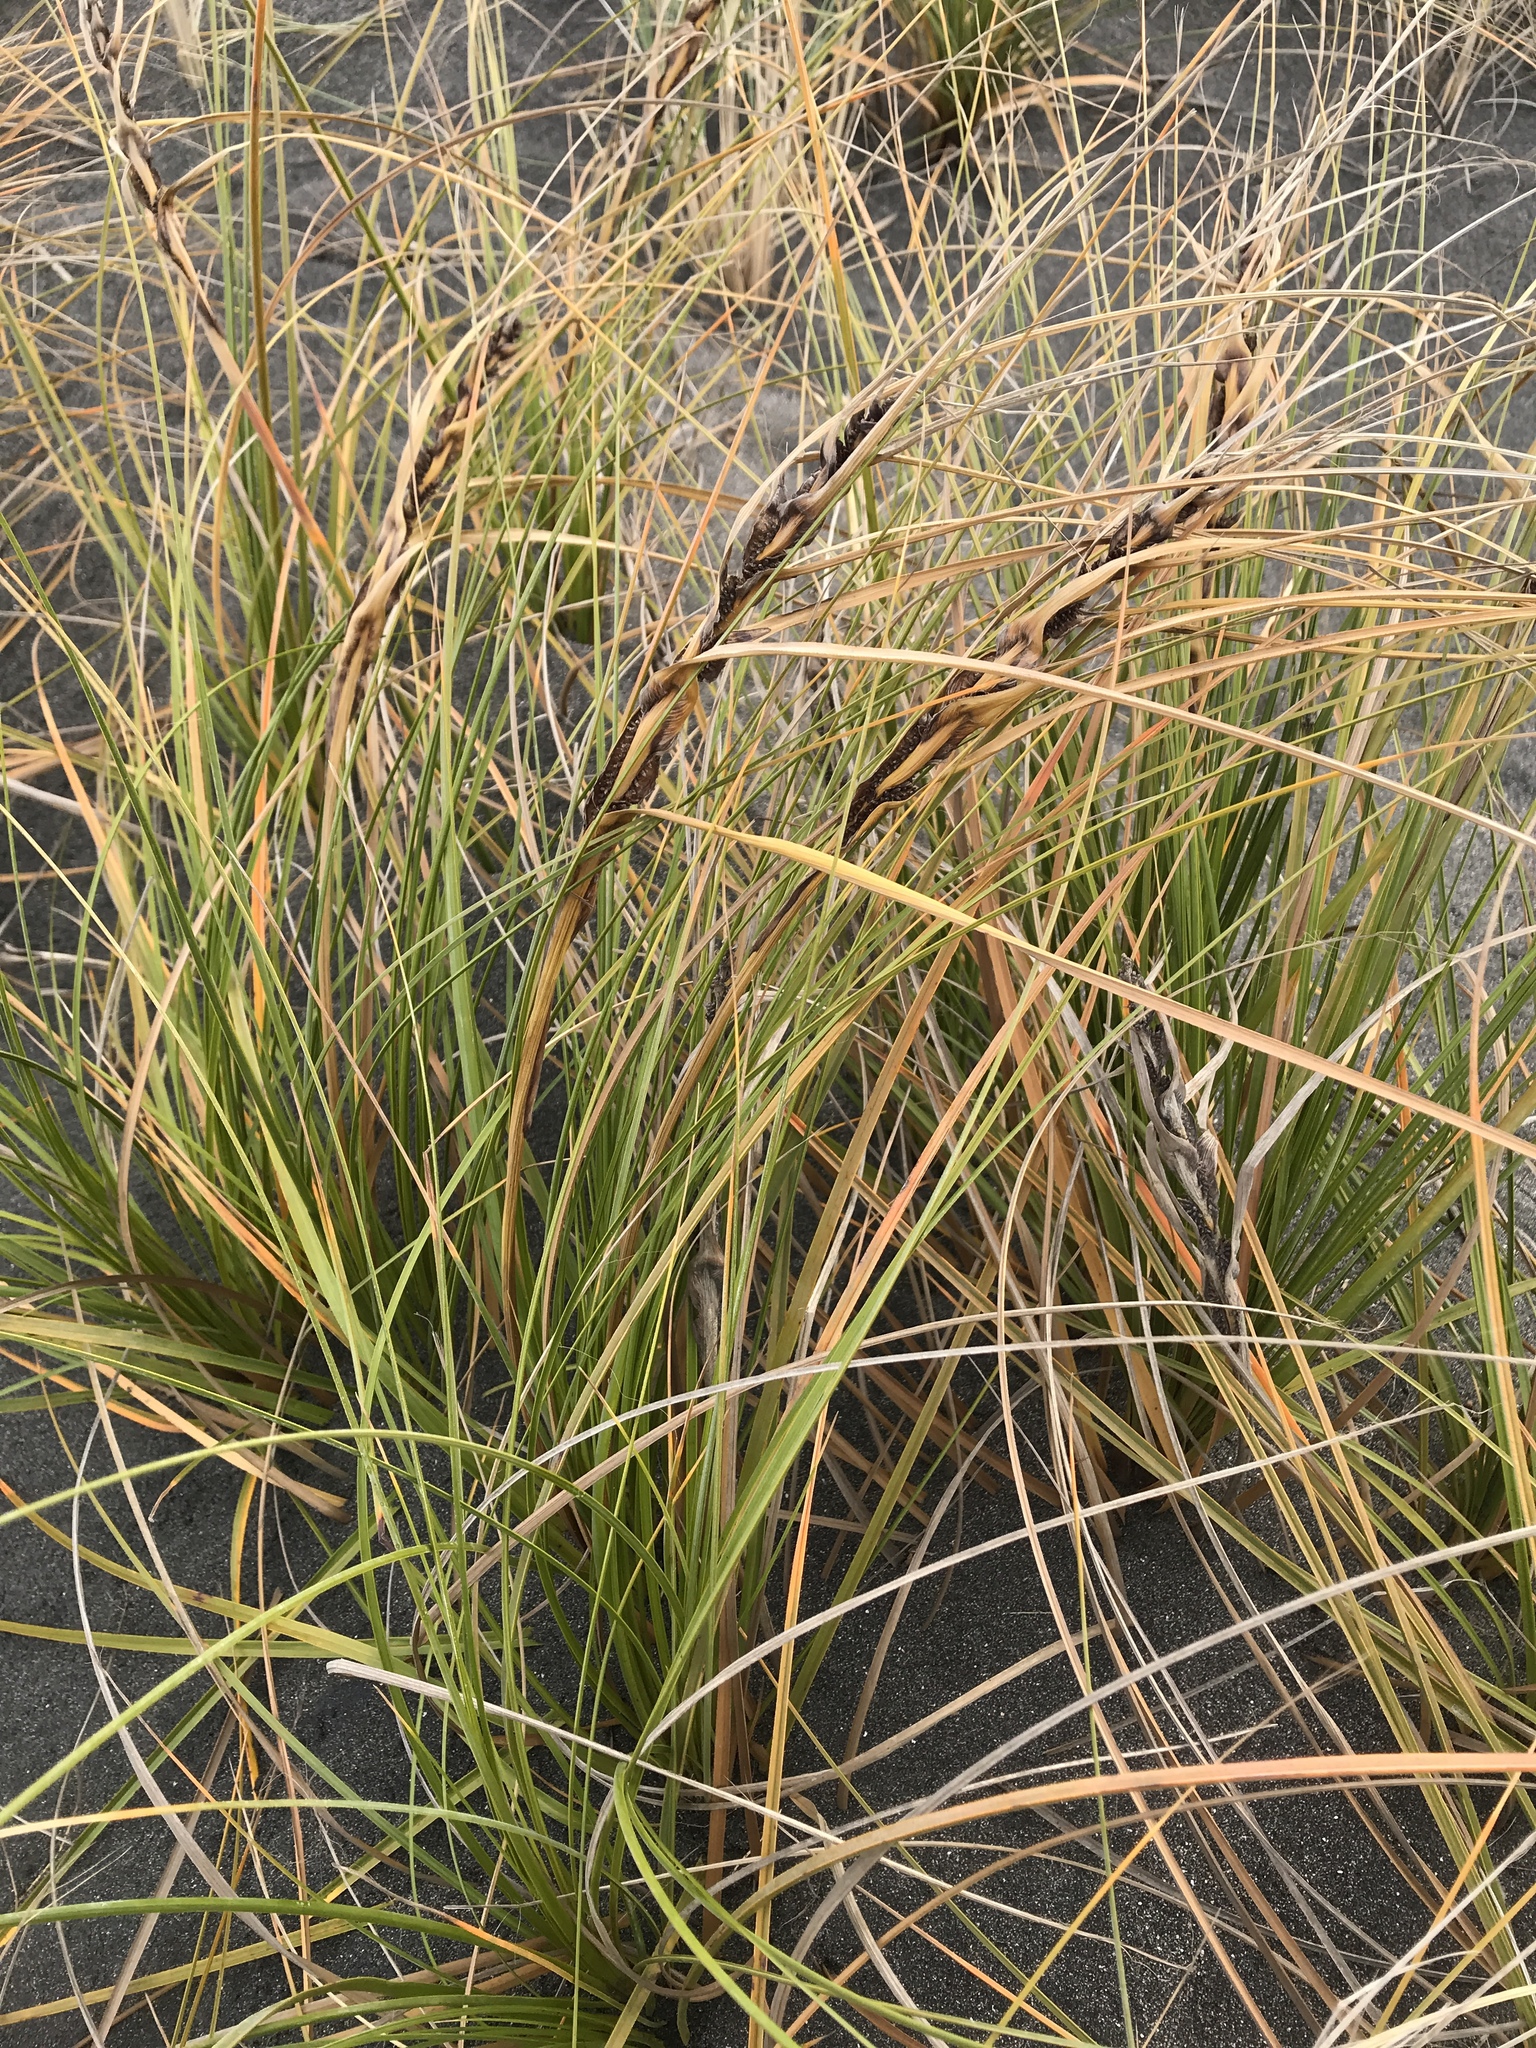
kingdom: Plantae
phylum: Tracheophyta
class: Liliopsida
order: Poales
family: Cyperaceae
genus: Ficinia
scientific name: Ficinia spiralis
